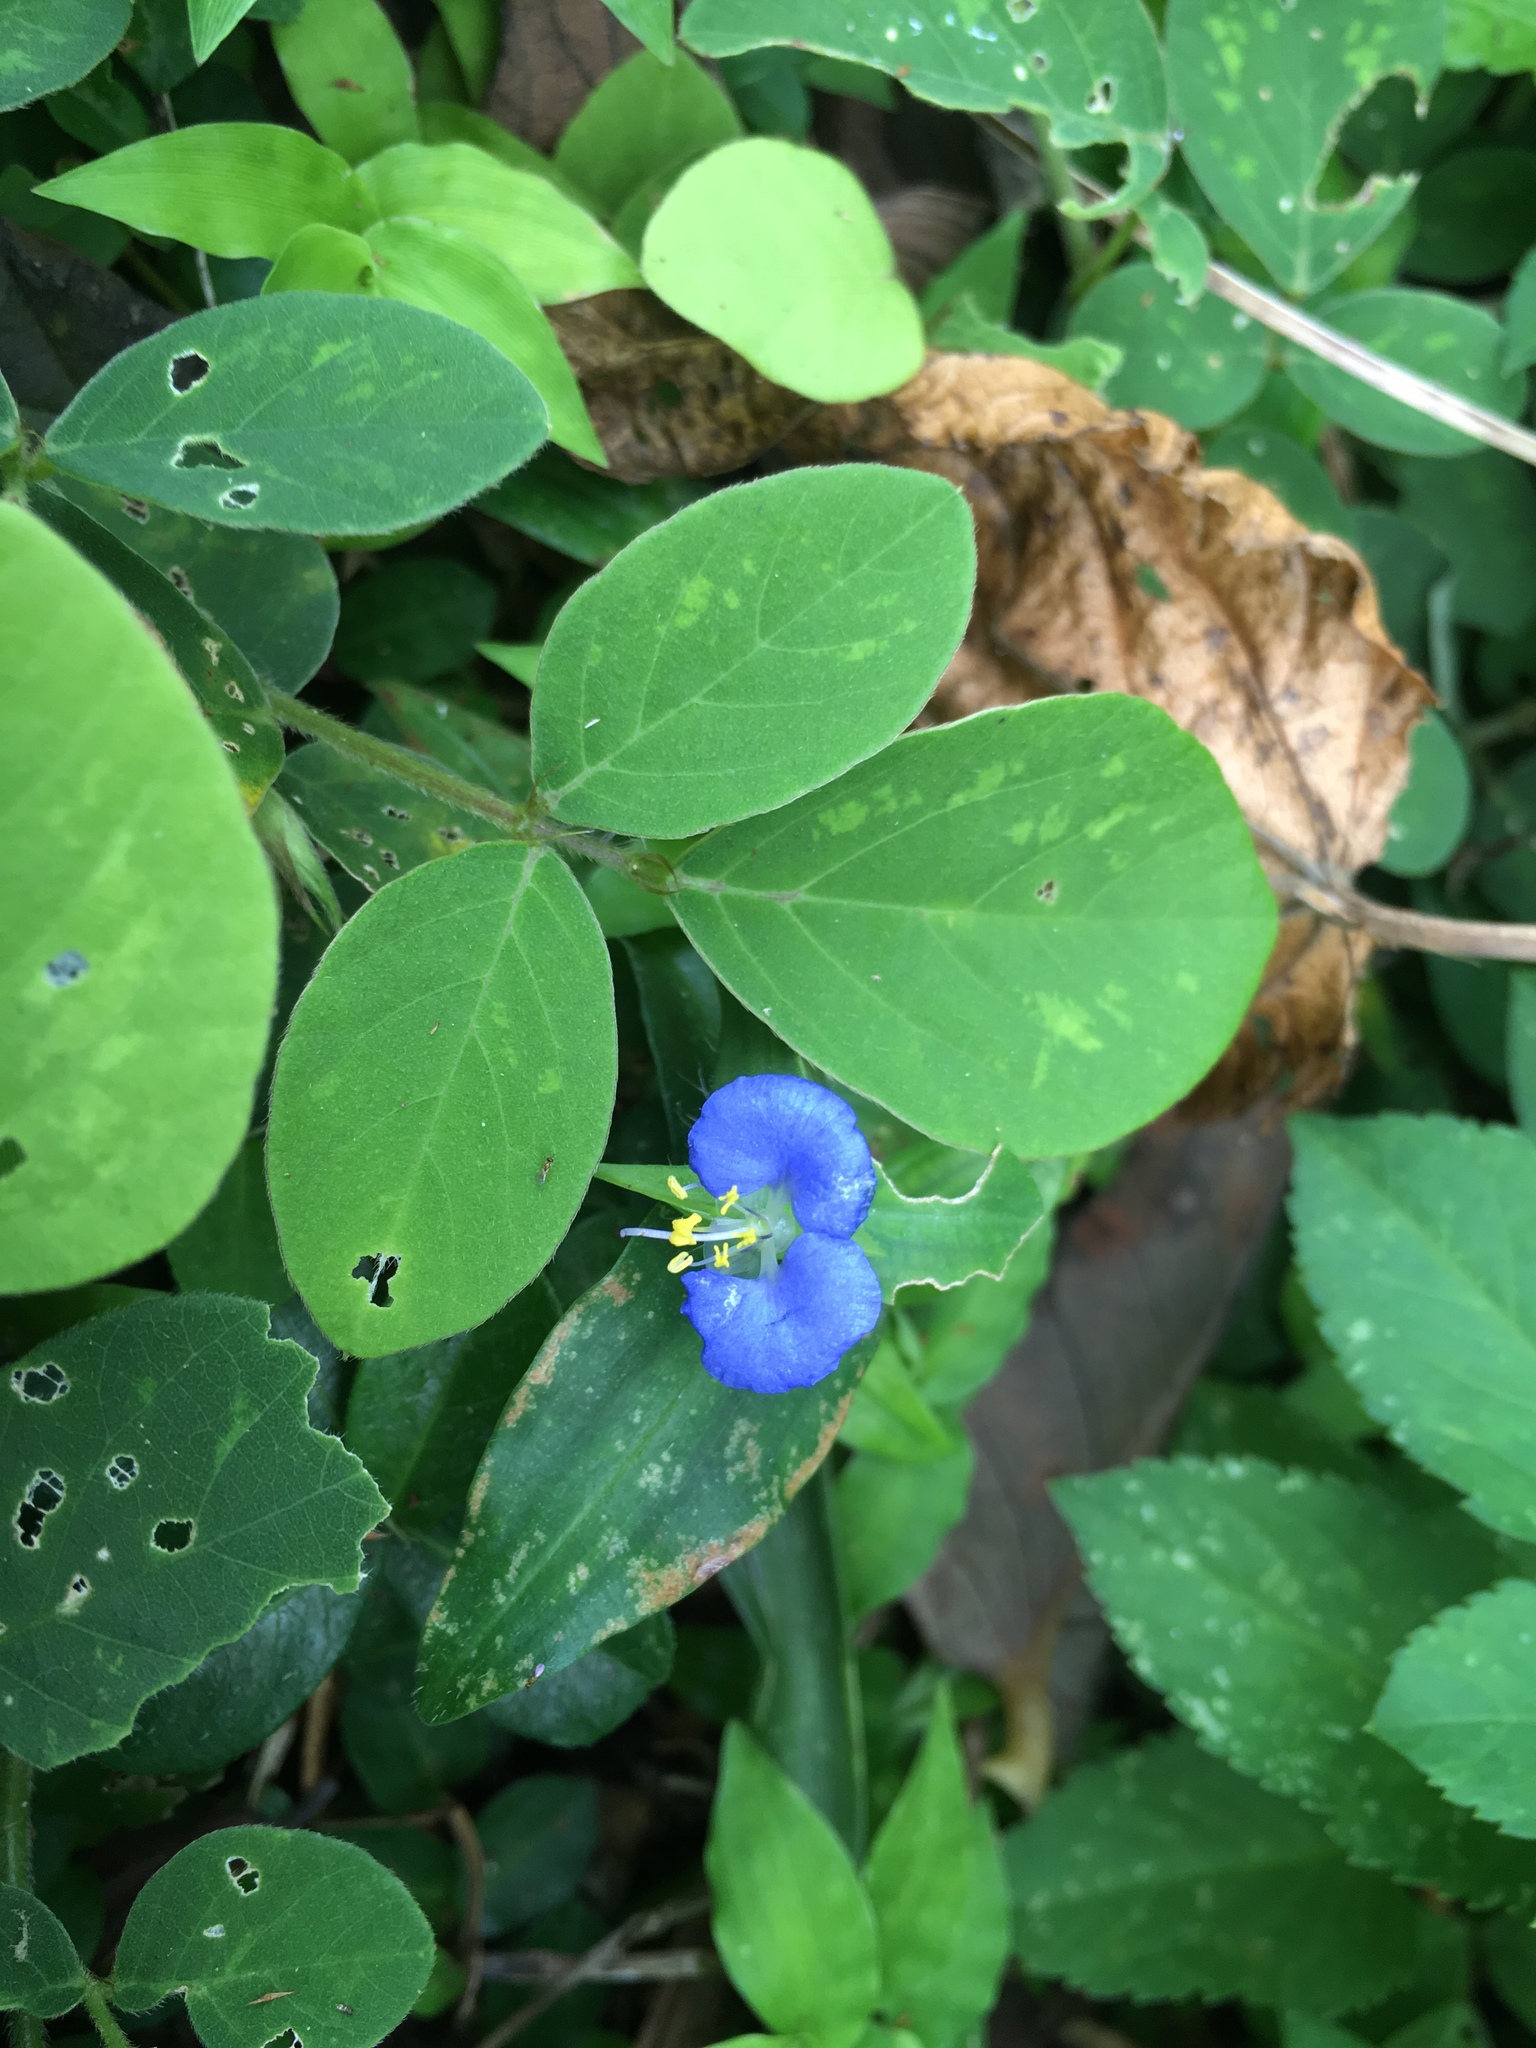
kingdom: Plantae
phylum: Tracheophyta
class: Liliopsida
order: Commelinales
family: Commelinaceae
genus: Commelina
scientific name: Commelina auriculata
